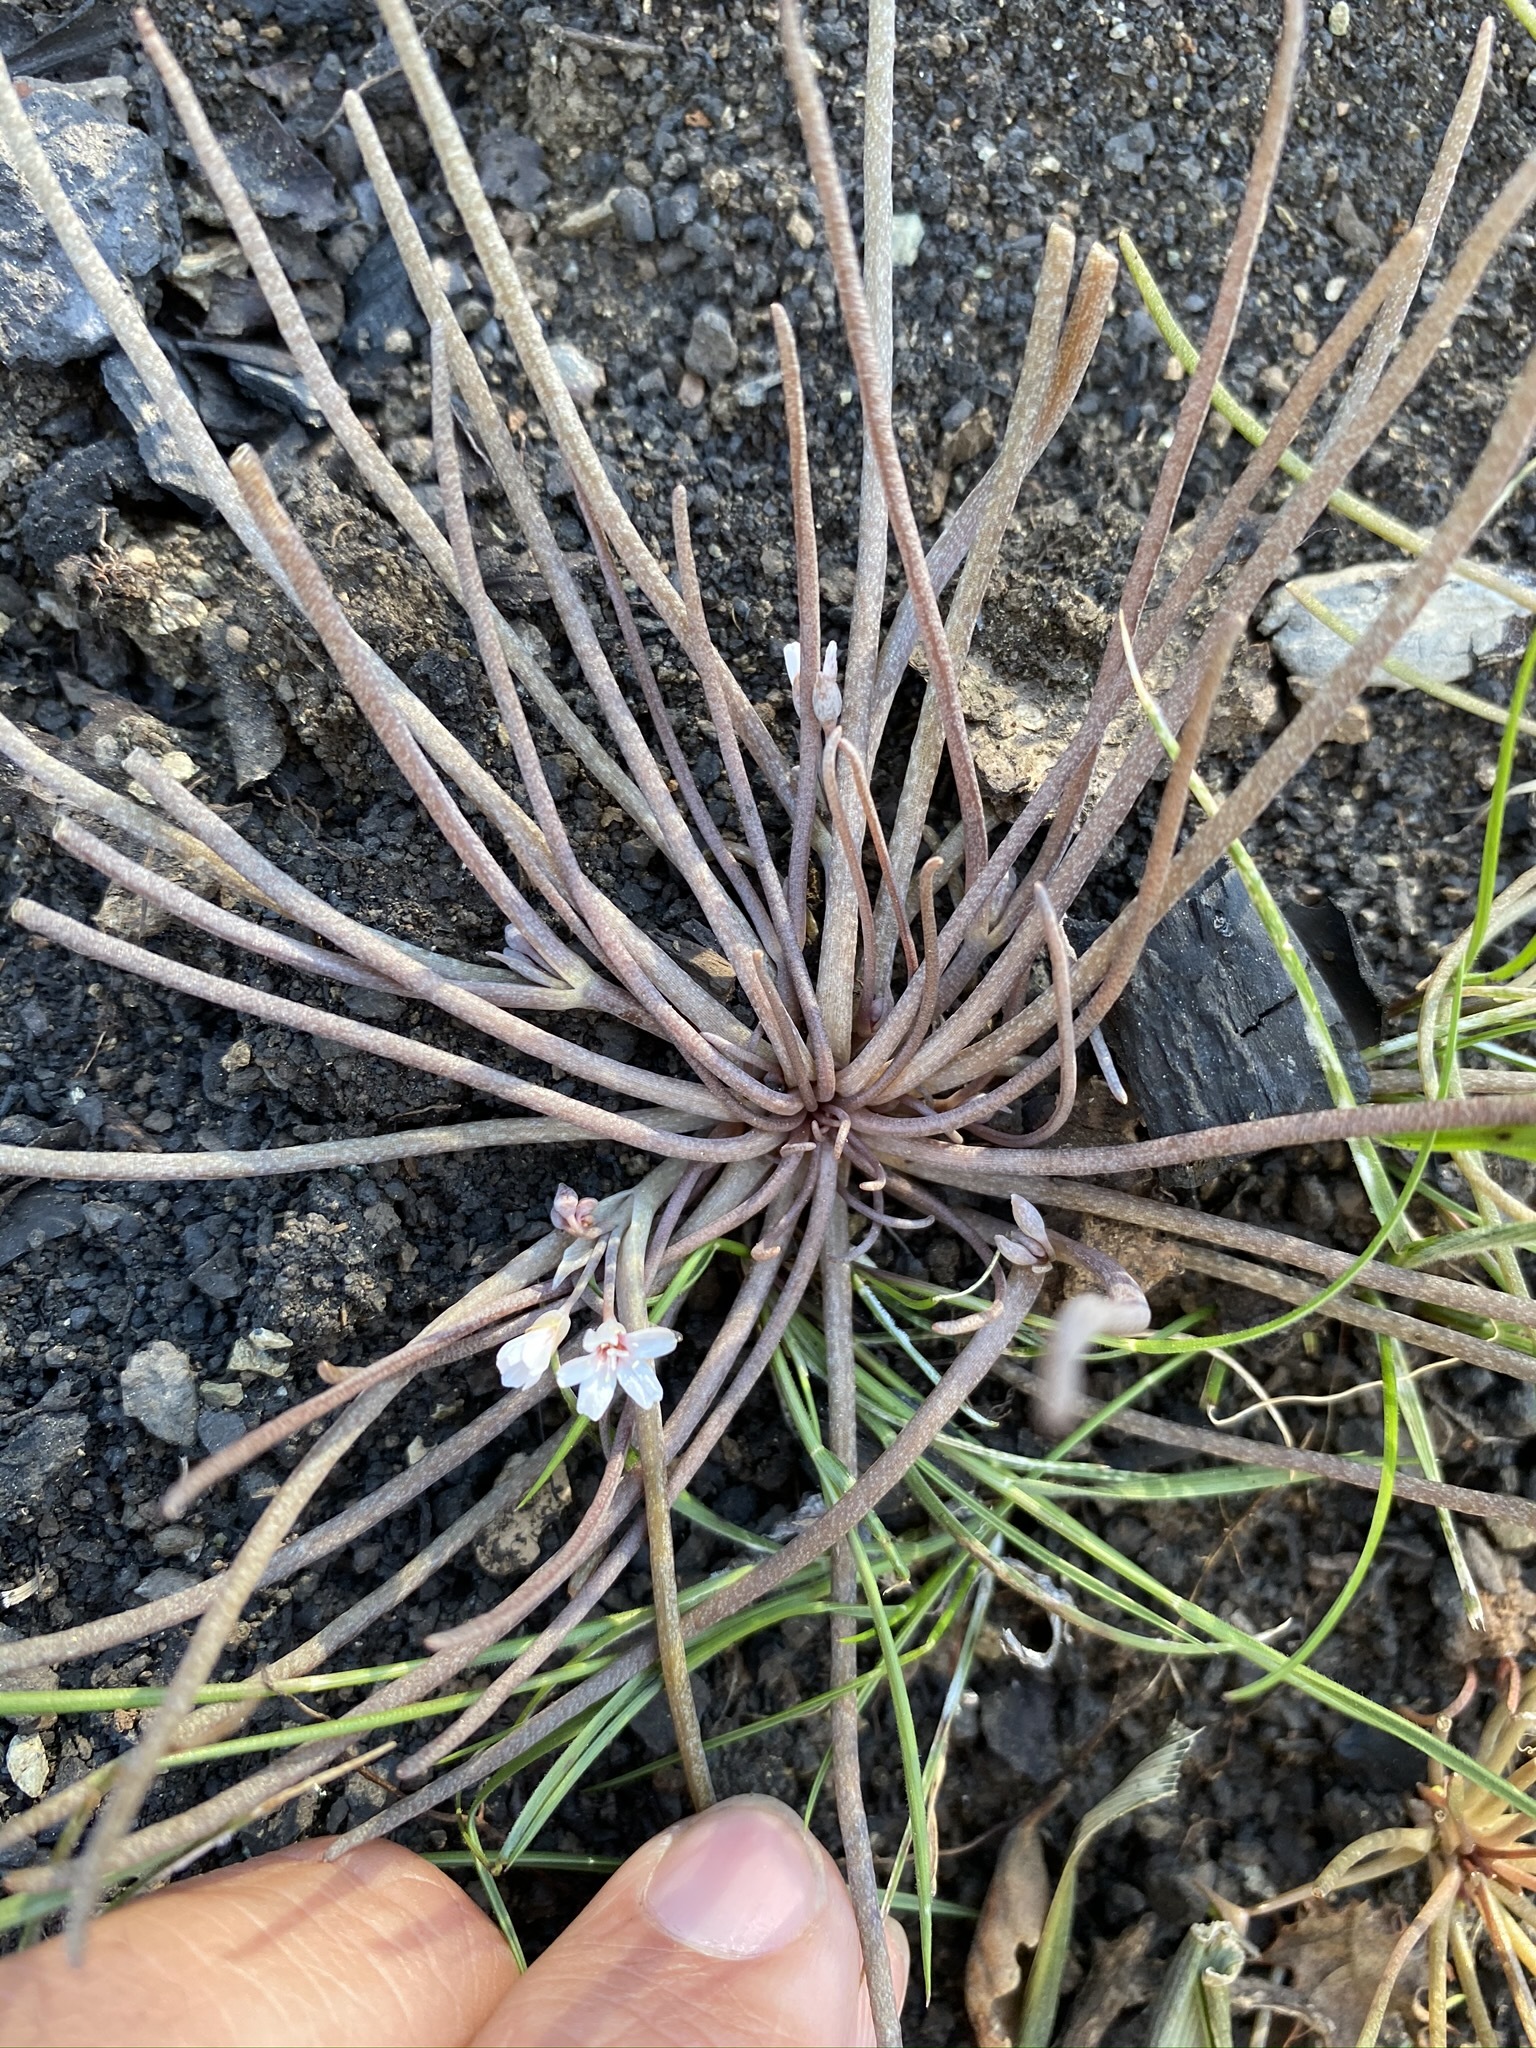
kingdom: Plantae
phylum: Tracheophyta
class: Magnoliopsida
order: Caryophyllales
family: Montiaceae
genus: Claytonia
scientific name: Claytonia exigua
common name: Pale spring beauty
